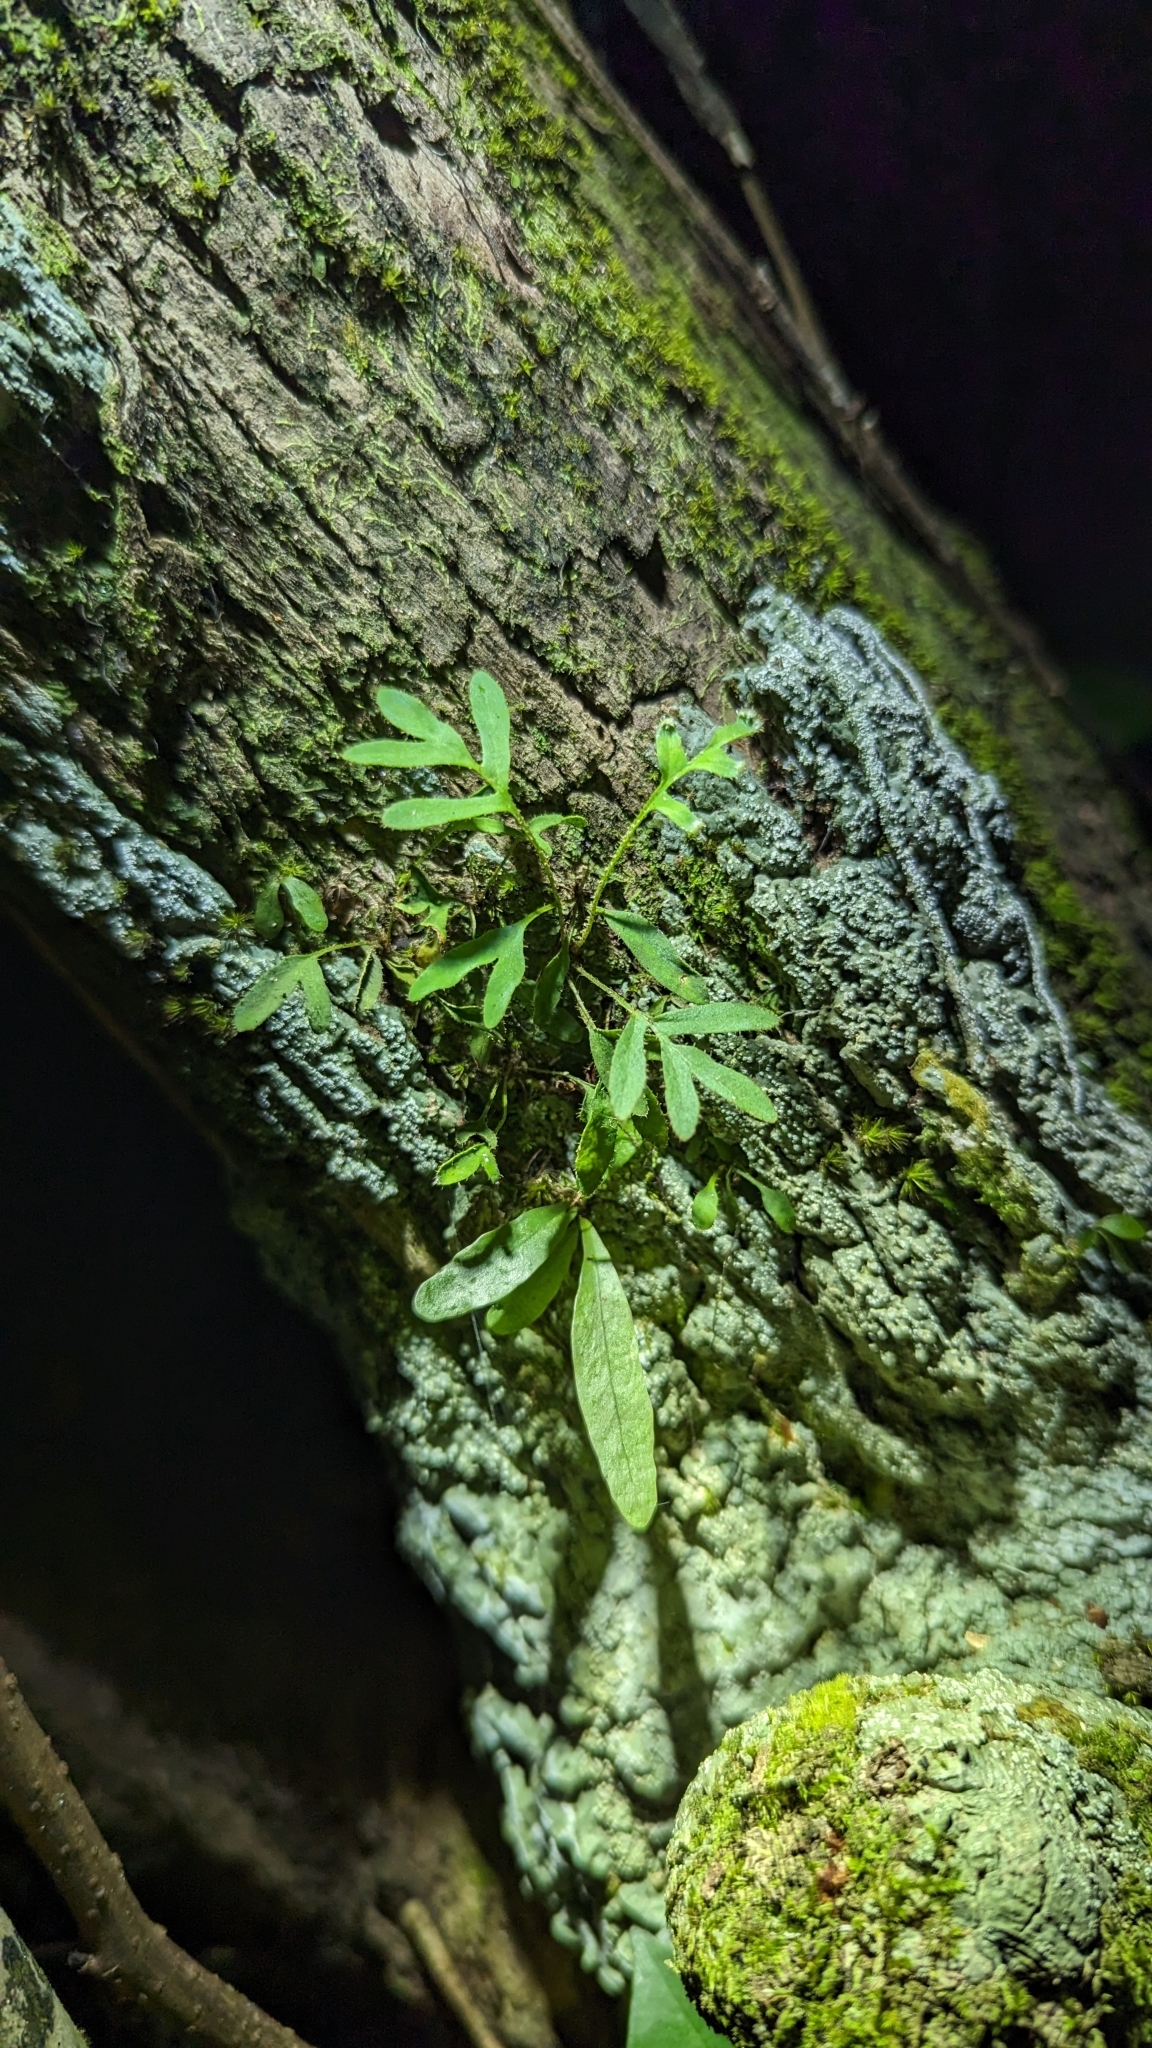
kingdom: Plantae
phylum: Tracheophyta
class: Polypodiopsida
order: Polypodiales
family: Polypodiaceae
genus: Pleopeltis
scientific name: Pleopeltis michauxiana
